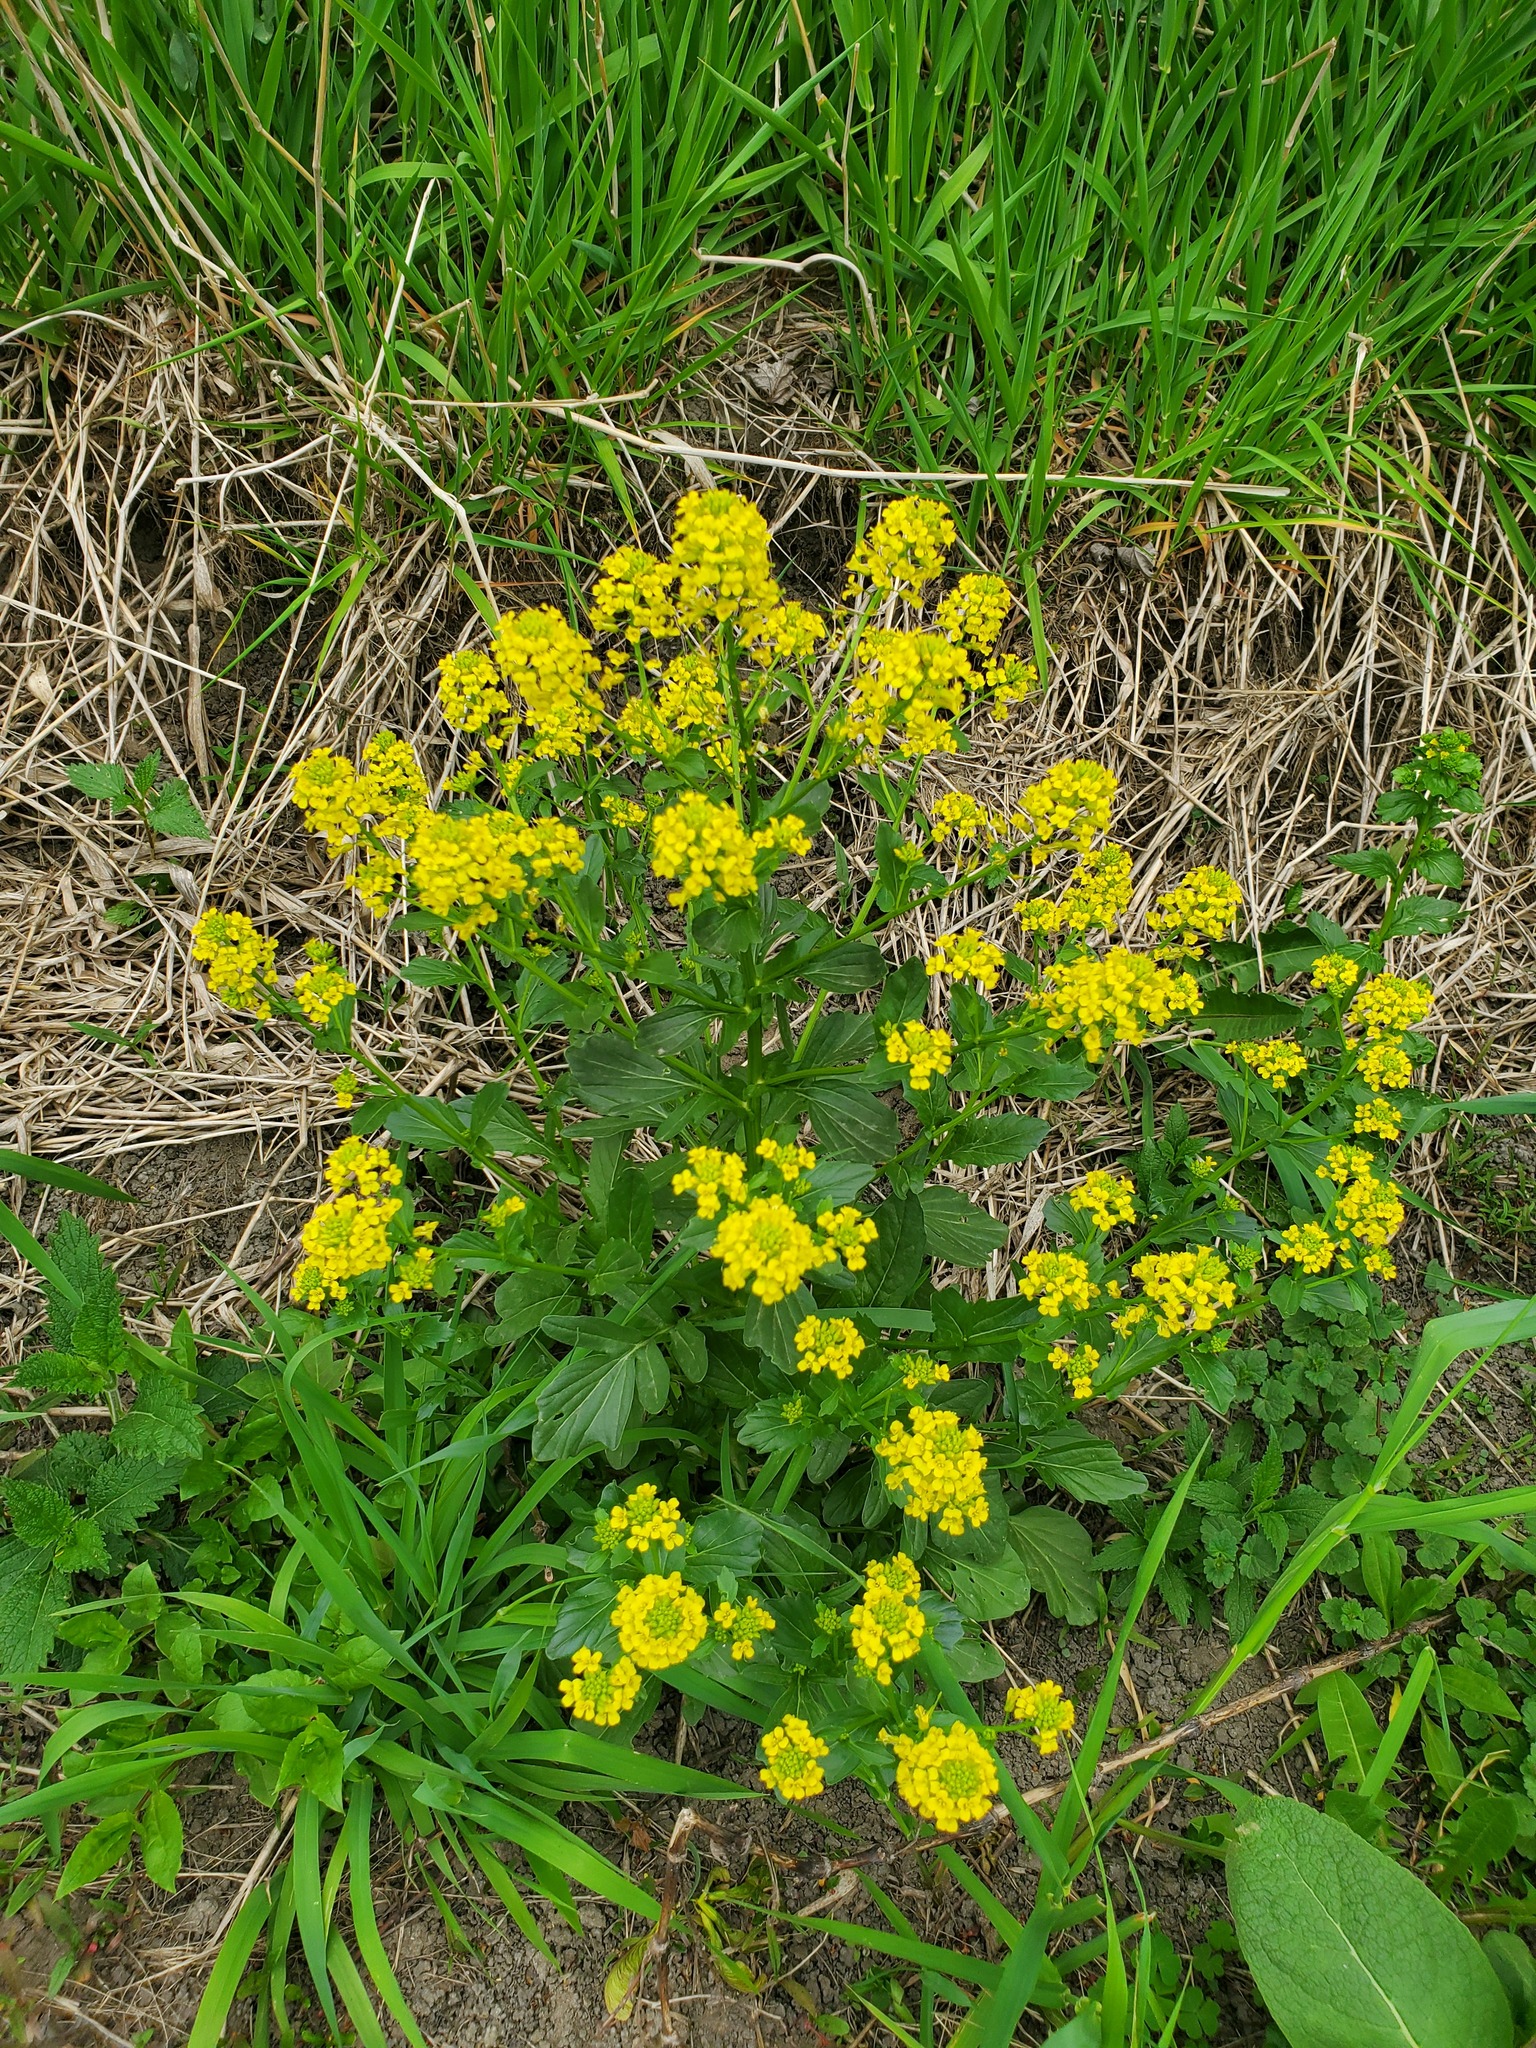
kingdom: Plantae
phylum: Tracheophyta
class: Magnoliopsida
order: Brassicales
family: Brassicaceae
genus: Barbarea
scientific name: Barbarea vulgaris
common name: Cressy-greens
